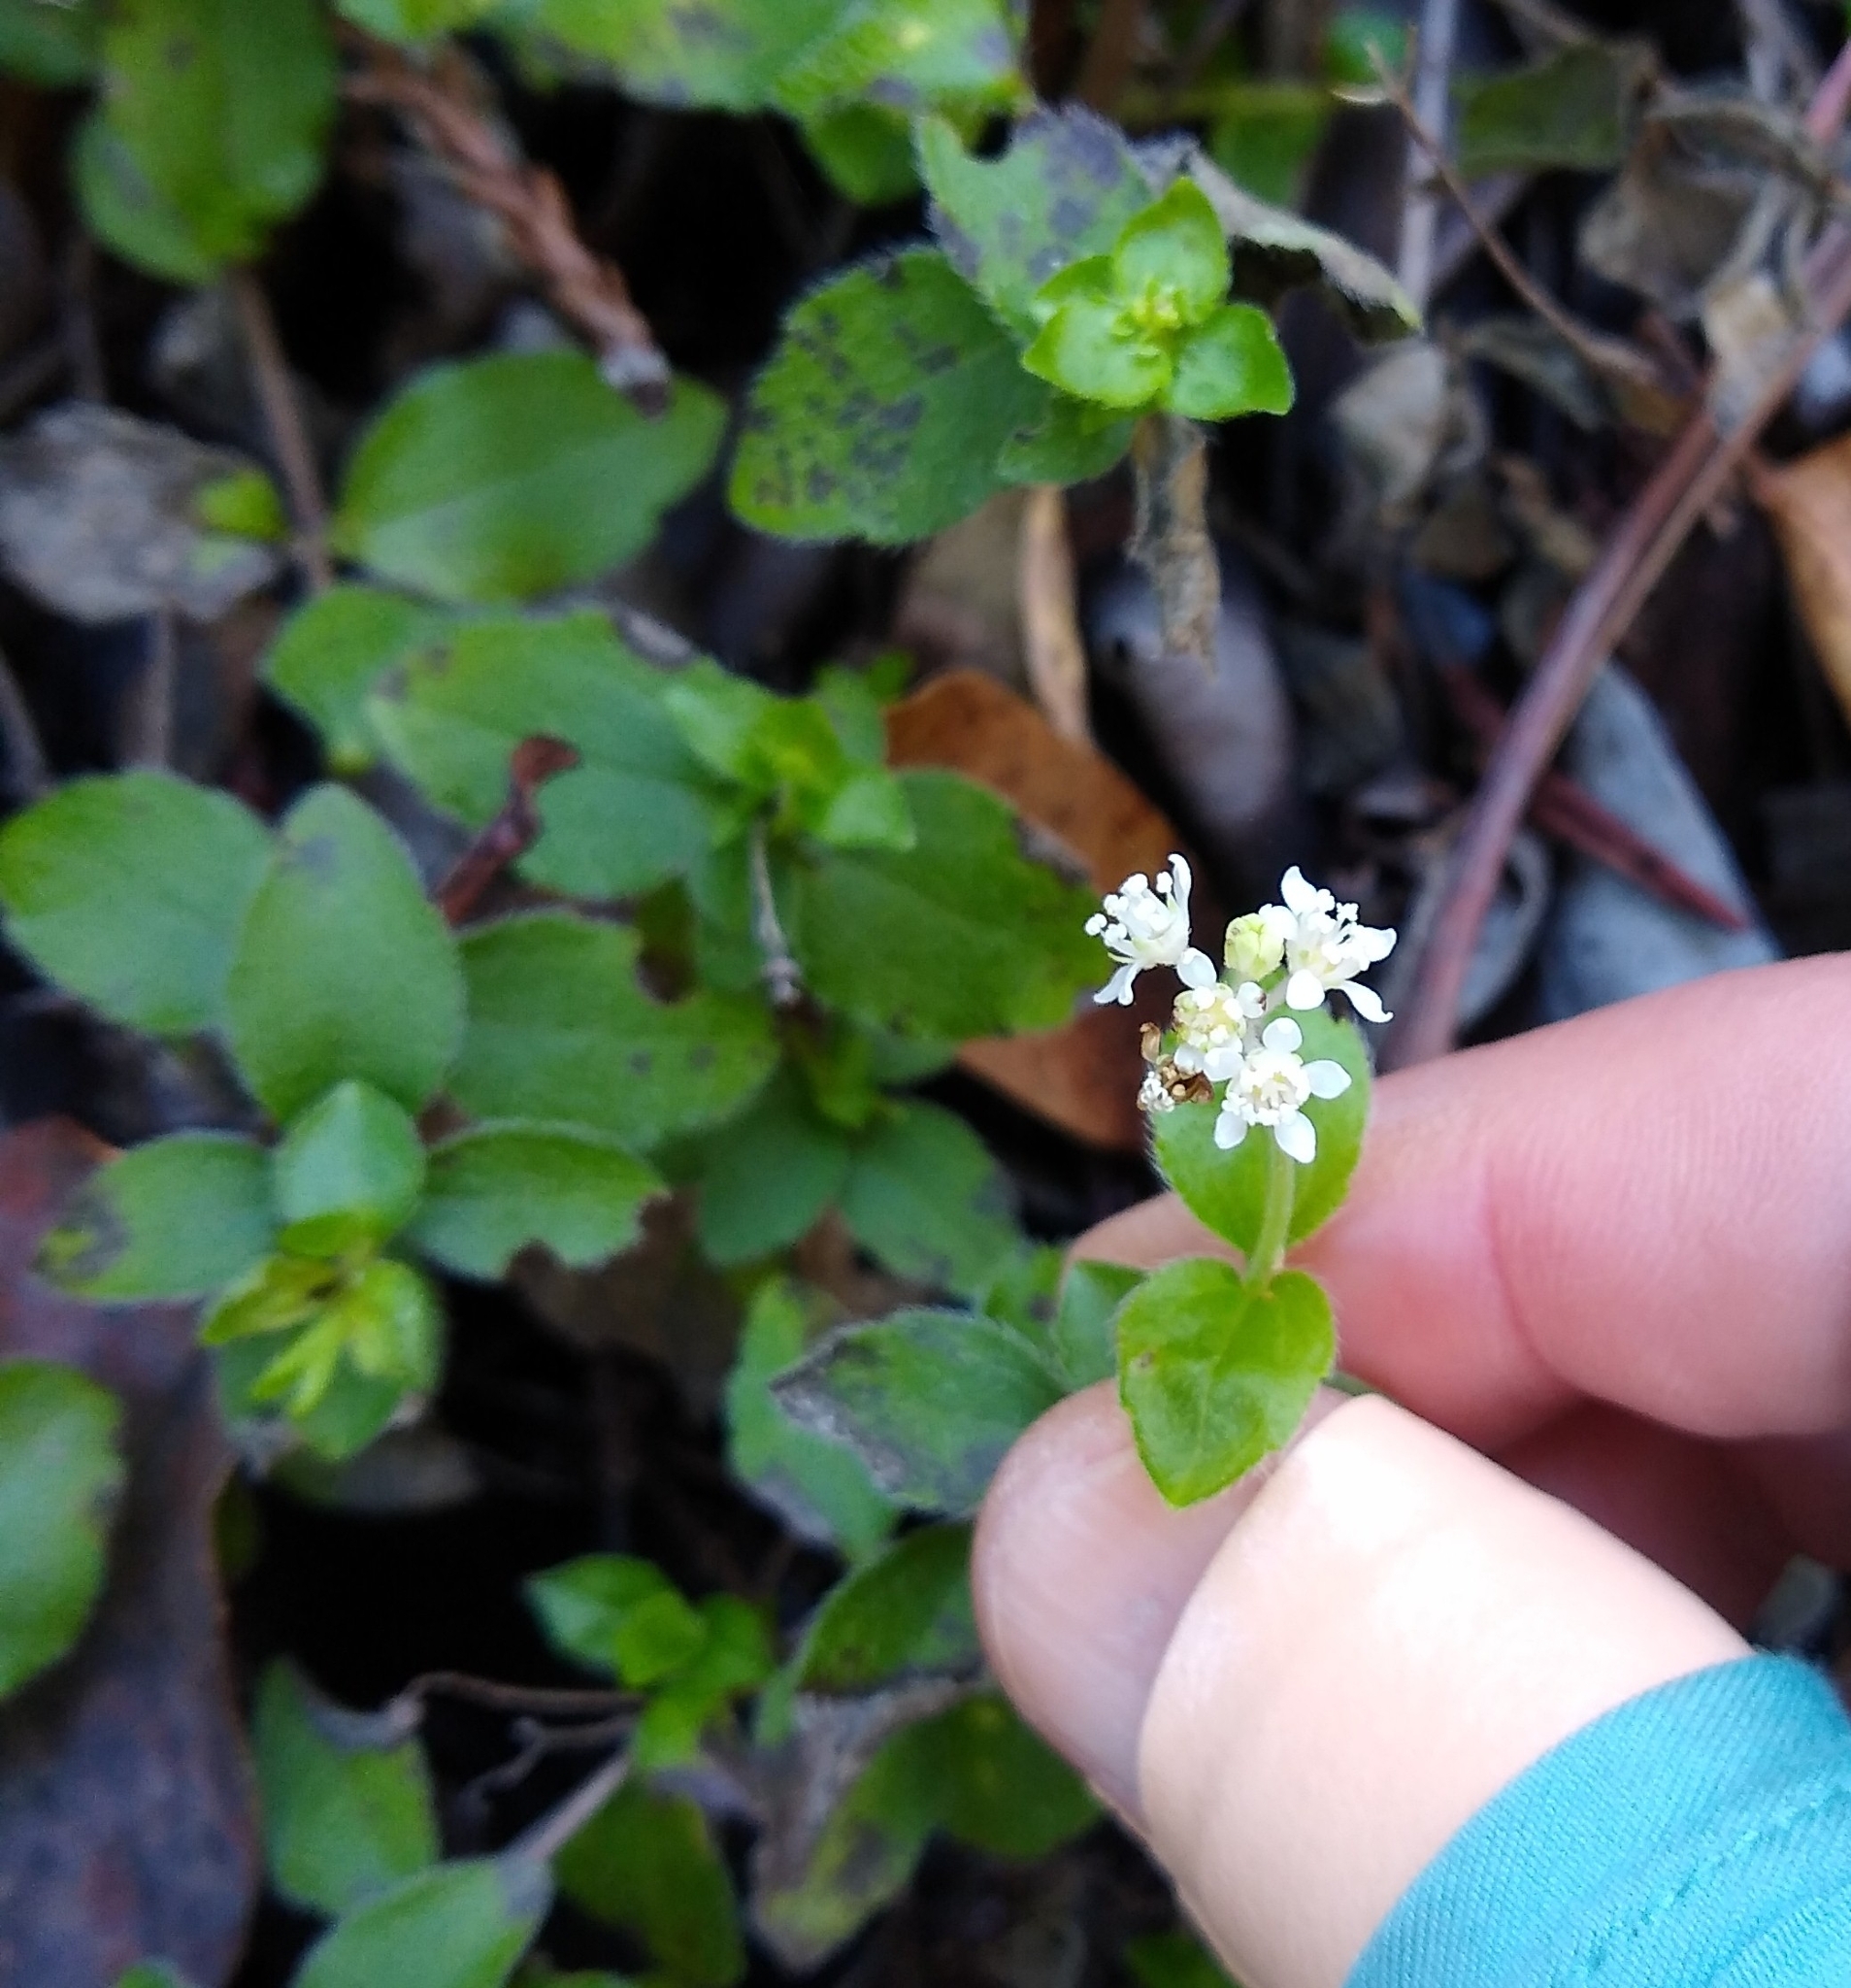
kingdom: Plantae
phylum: Tracheophyta
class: Magnoliopsida
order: Cornales
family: Hydrangeaceae
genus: Whipplea
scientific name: Whipplea modesta
